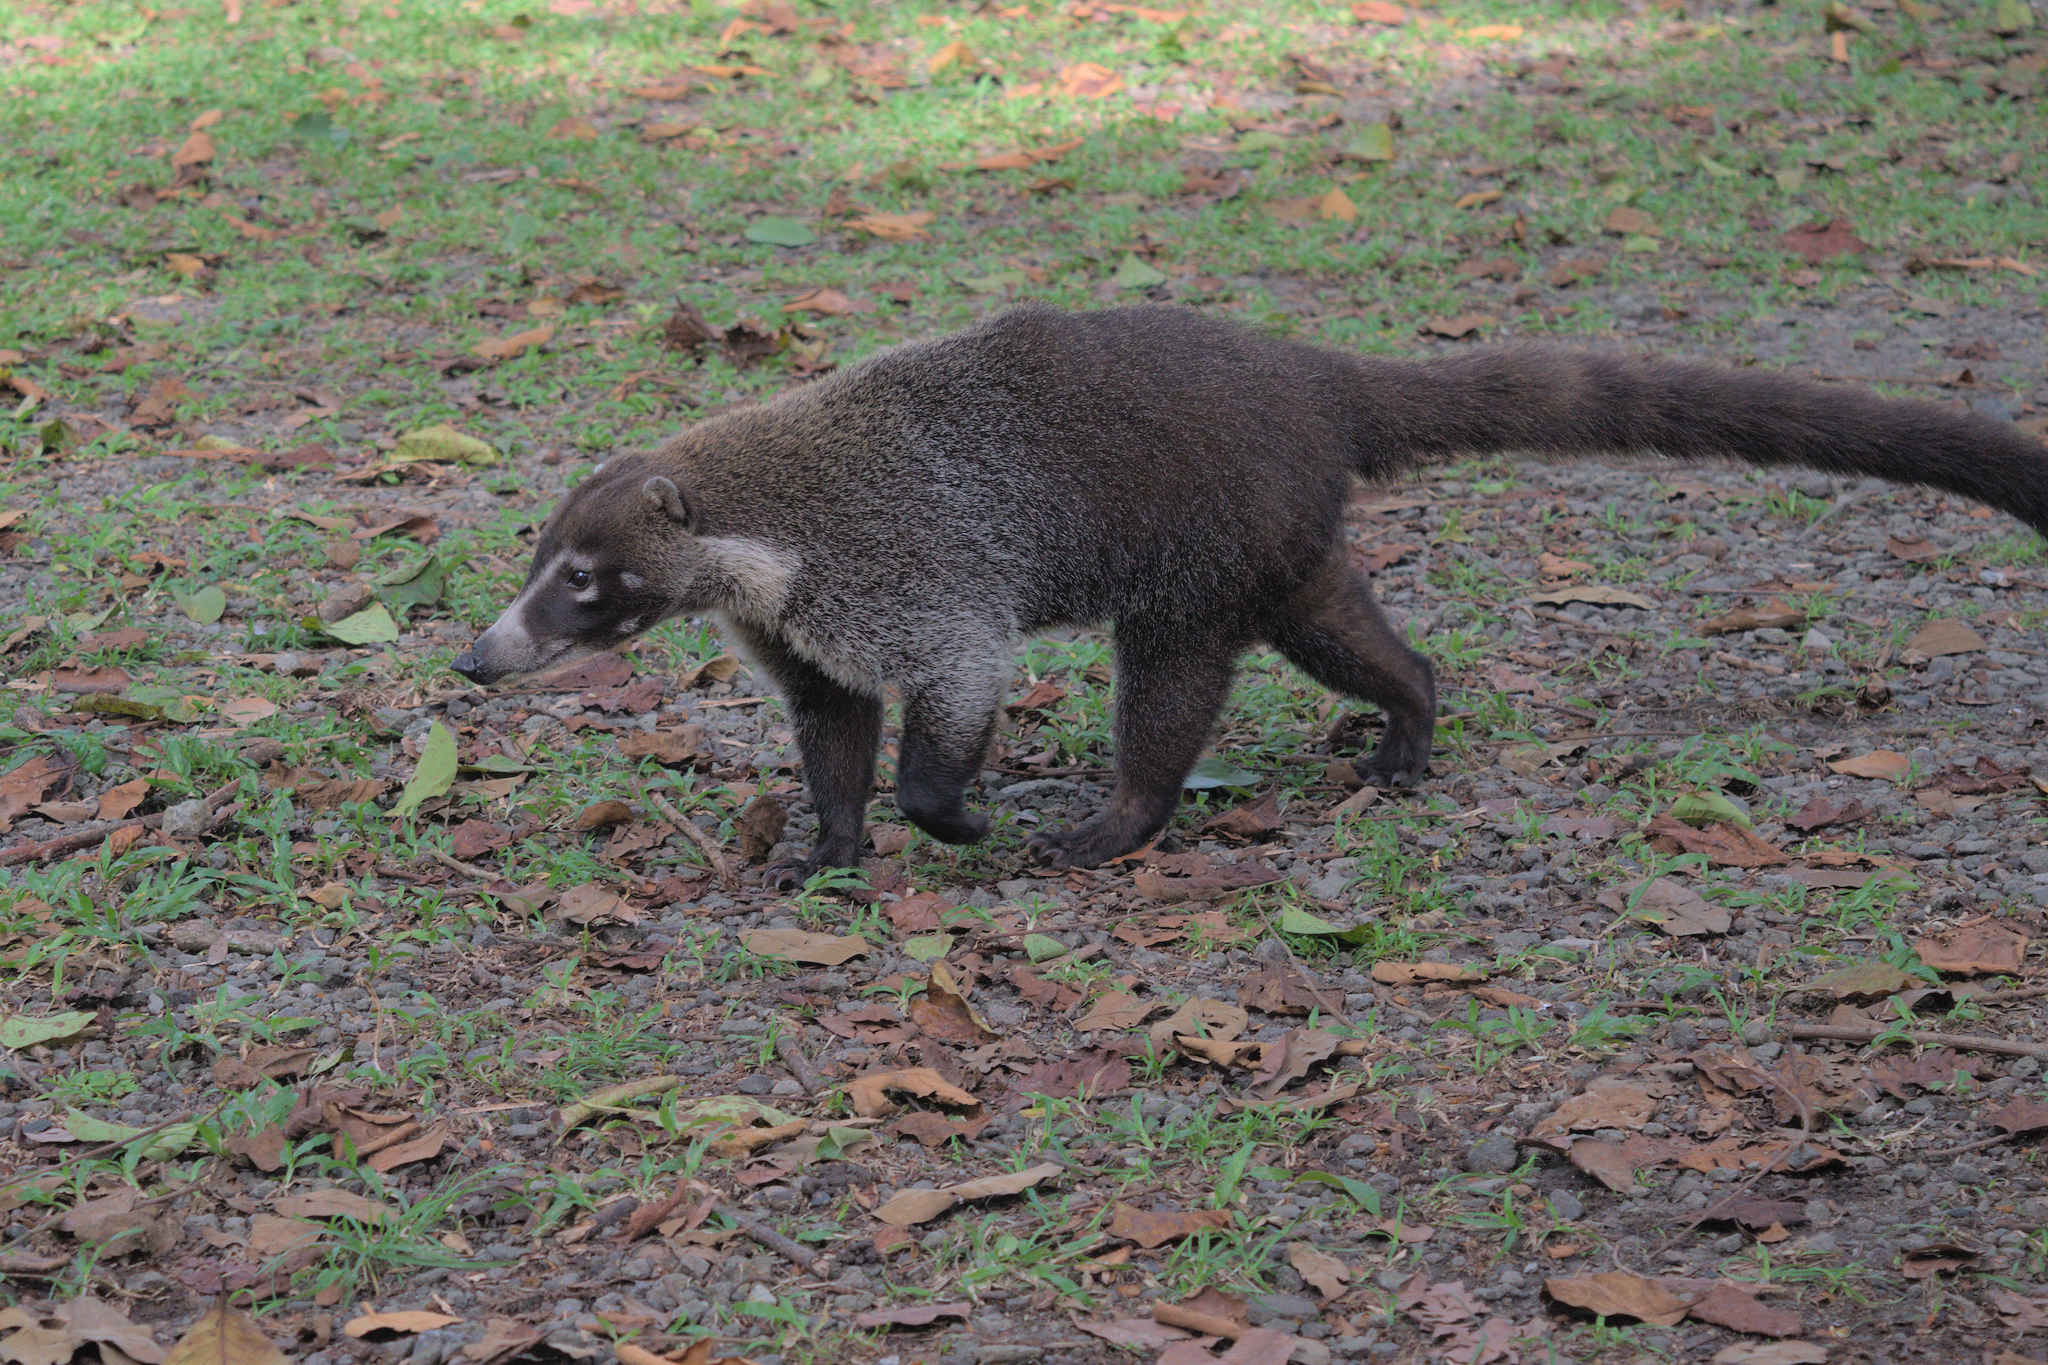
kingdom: Animalia
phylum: Chordata
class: Mammalia
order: Carnivora
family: Procyonidae
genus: Nasua
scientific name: Nasua narica
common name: White-nosed coati
